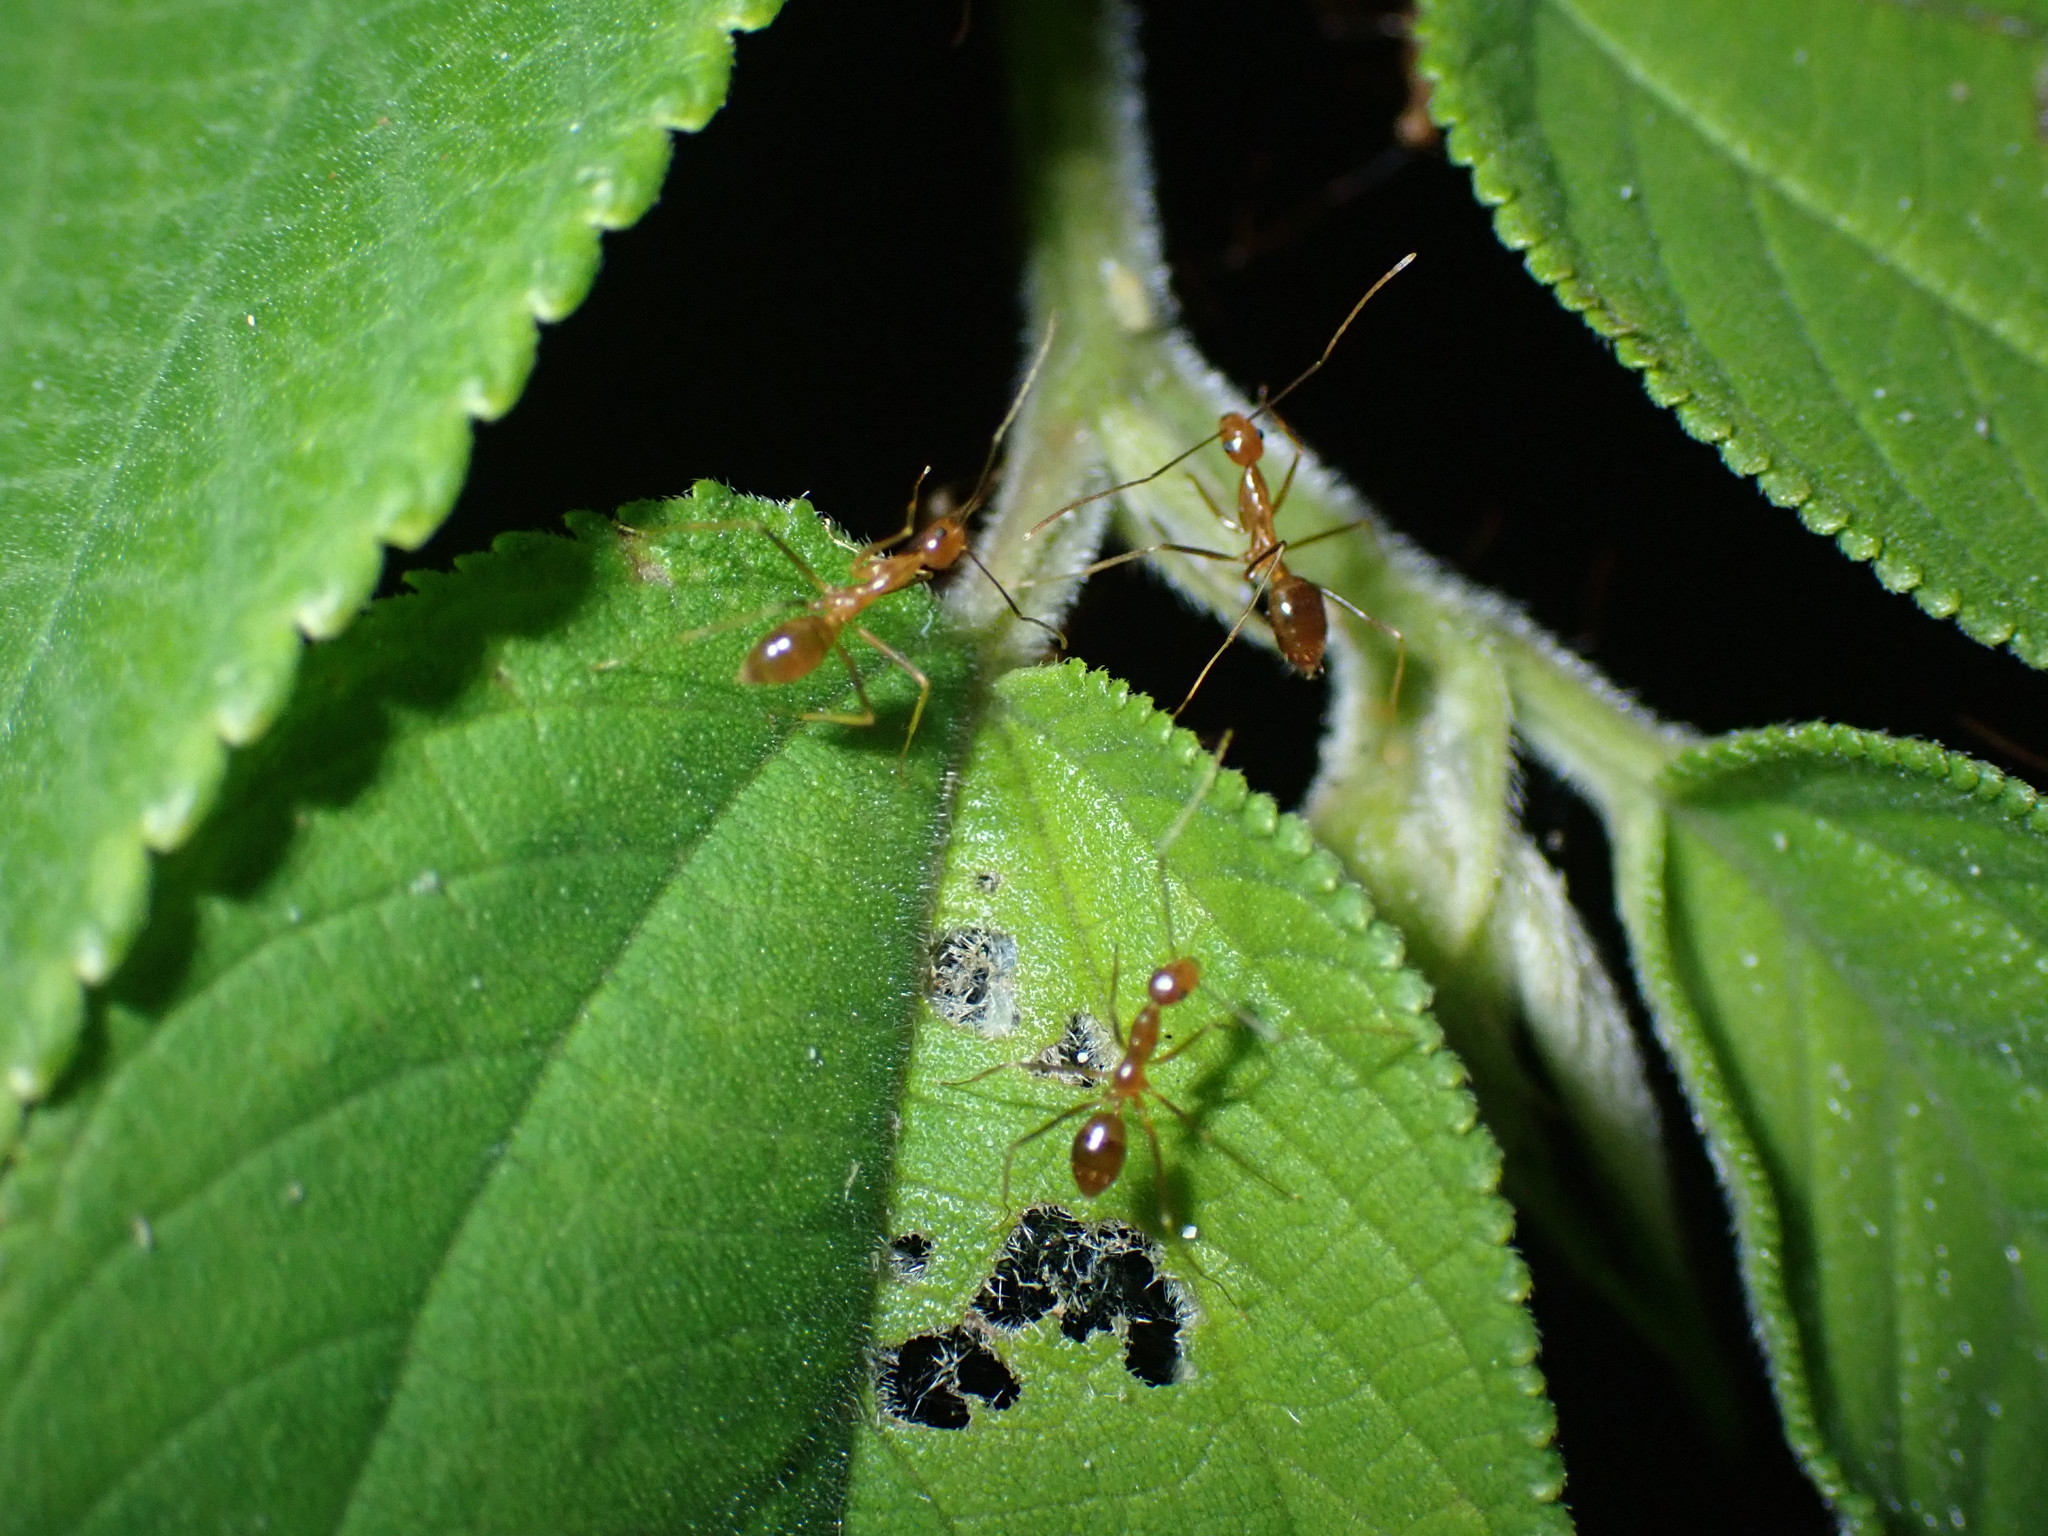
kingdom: Animalia
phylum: Arthropoda
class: Insecta
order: Hymenoptera
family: Formicidae
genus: Anoplolepis
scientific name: Anoplolepis gracilipes
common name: Ant
